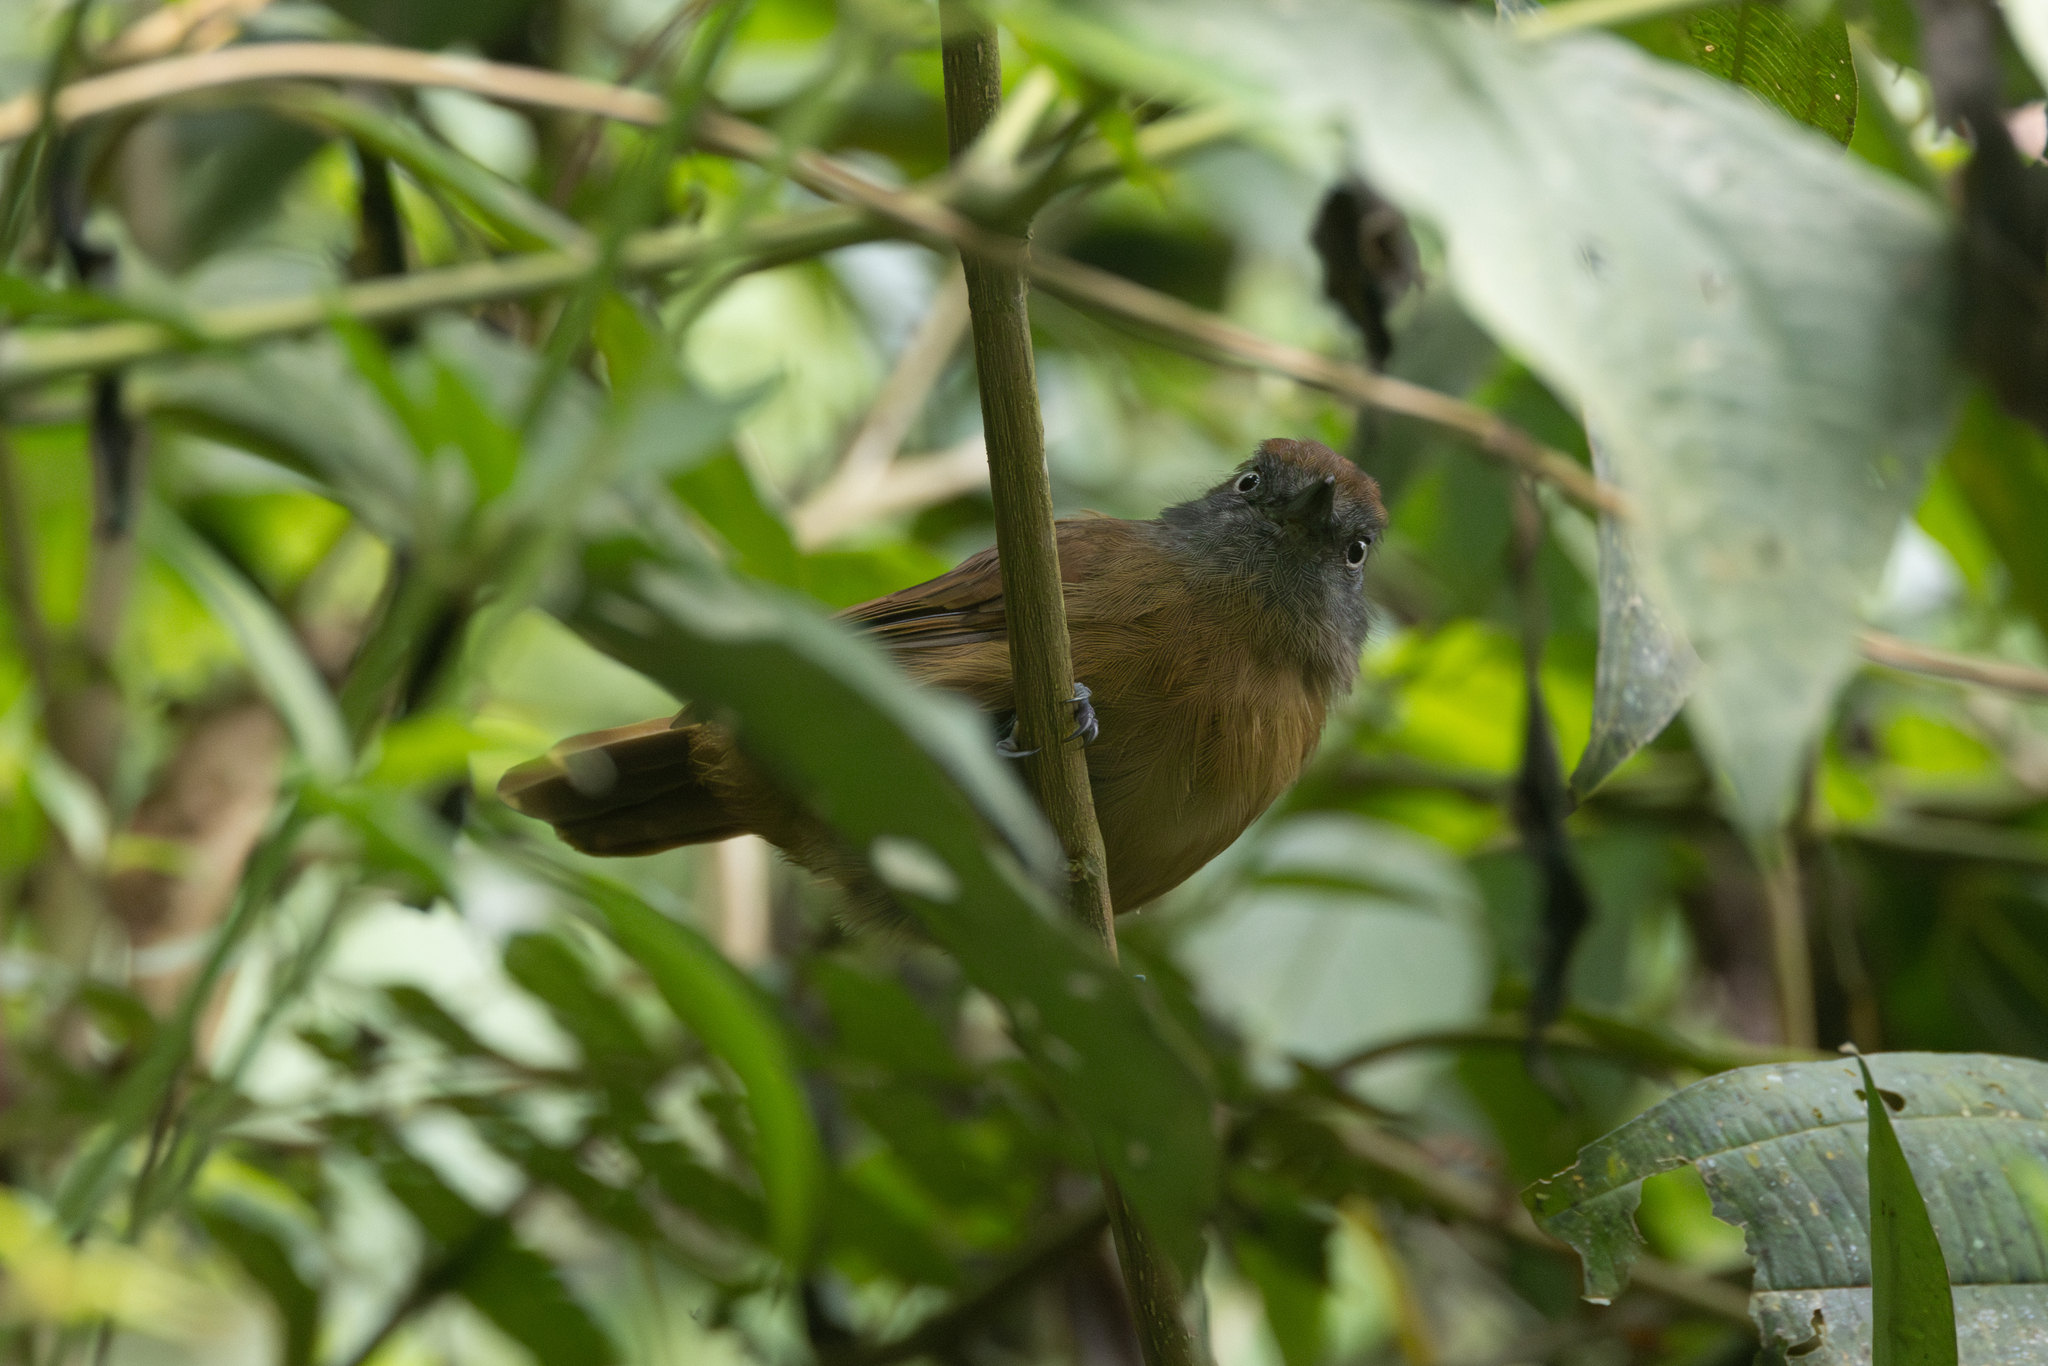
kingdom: Animalia
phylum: Chordata
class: Aves
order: Passeriformes
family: Thamnophilidae
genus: Thamnophilus
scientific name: Thamnophilus unicolor
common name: Uniform antshrike
